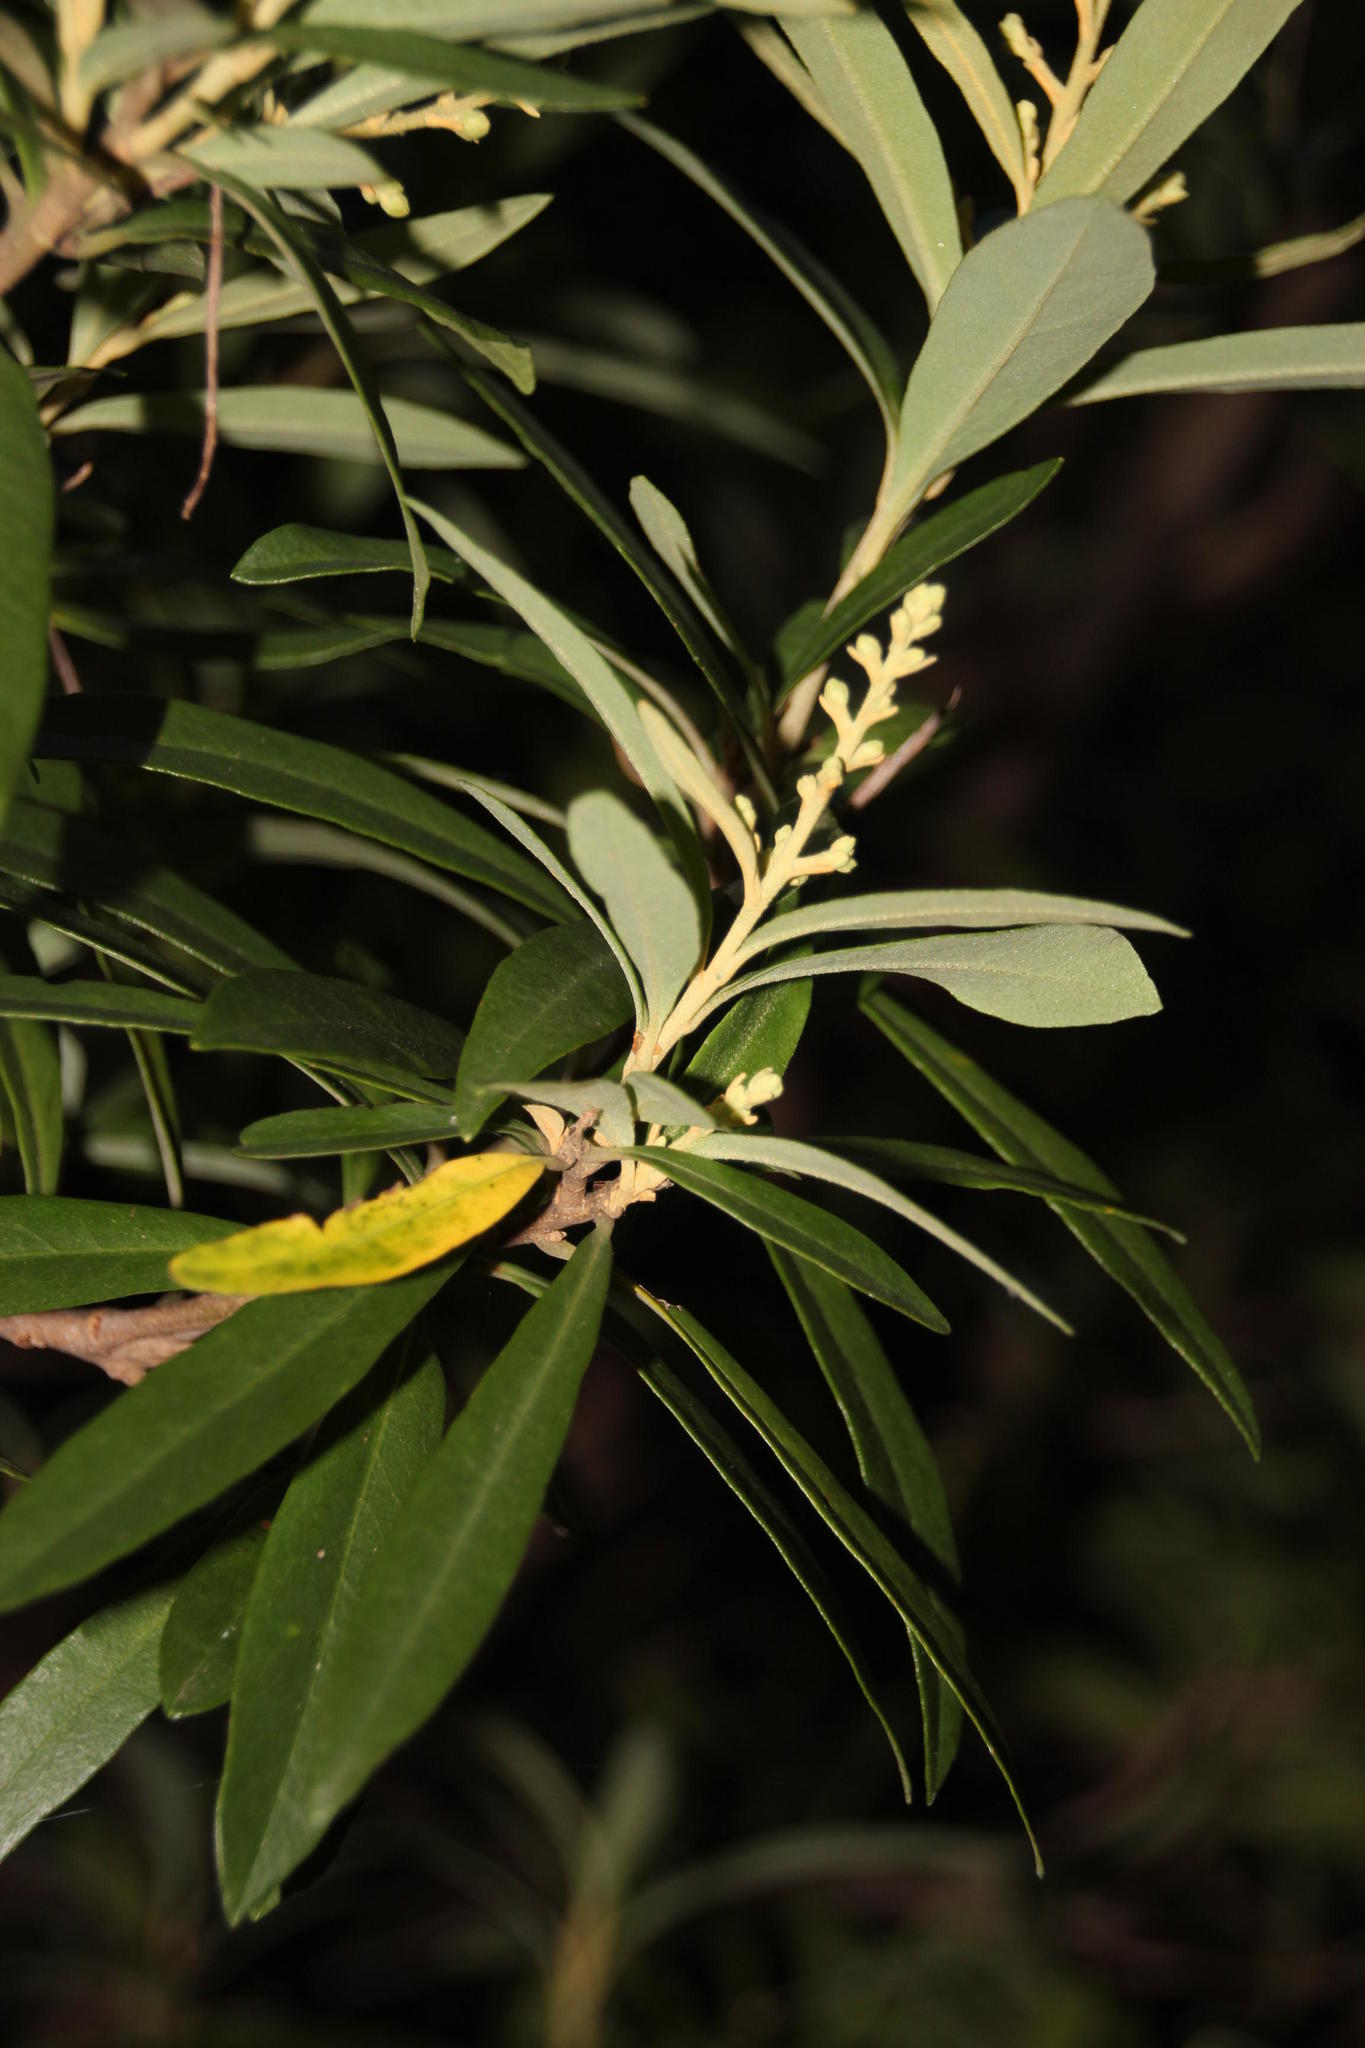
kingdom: Plantae
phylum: Tracheophyta
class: Magnoliopsida
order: Asterales
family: Asteraceae
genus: Brachylaena
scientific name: Brachylaena neriifolia
